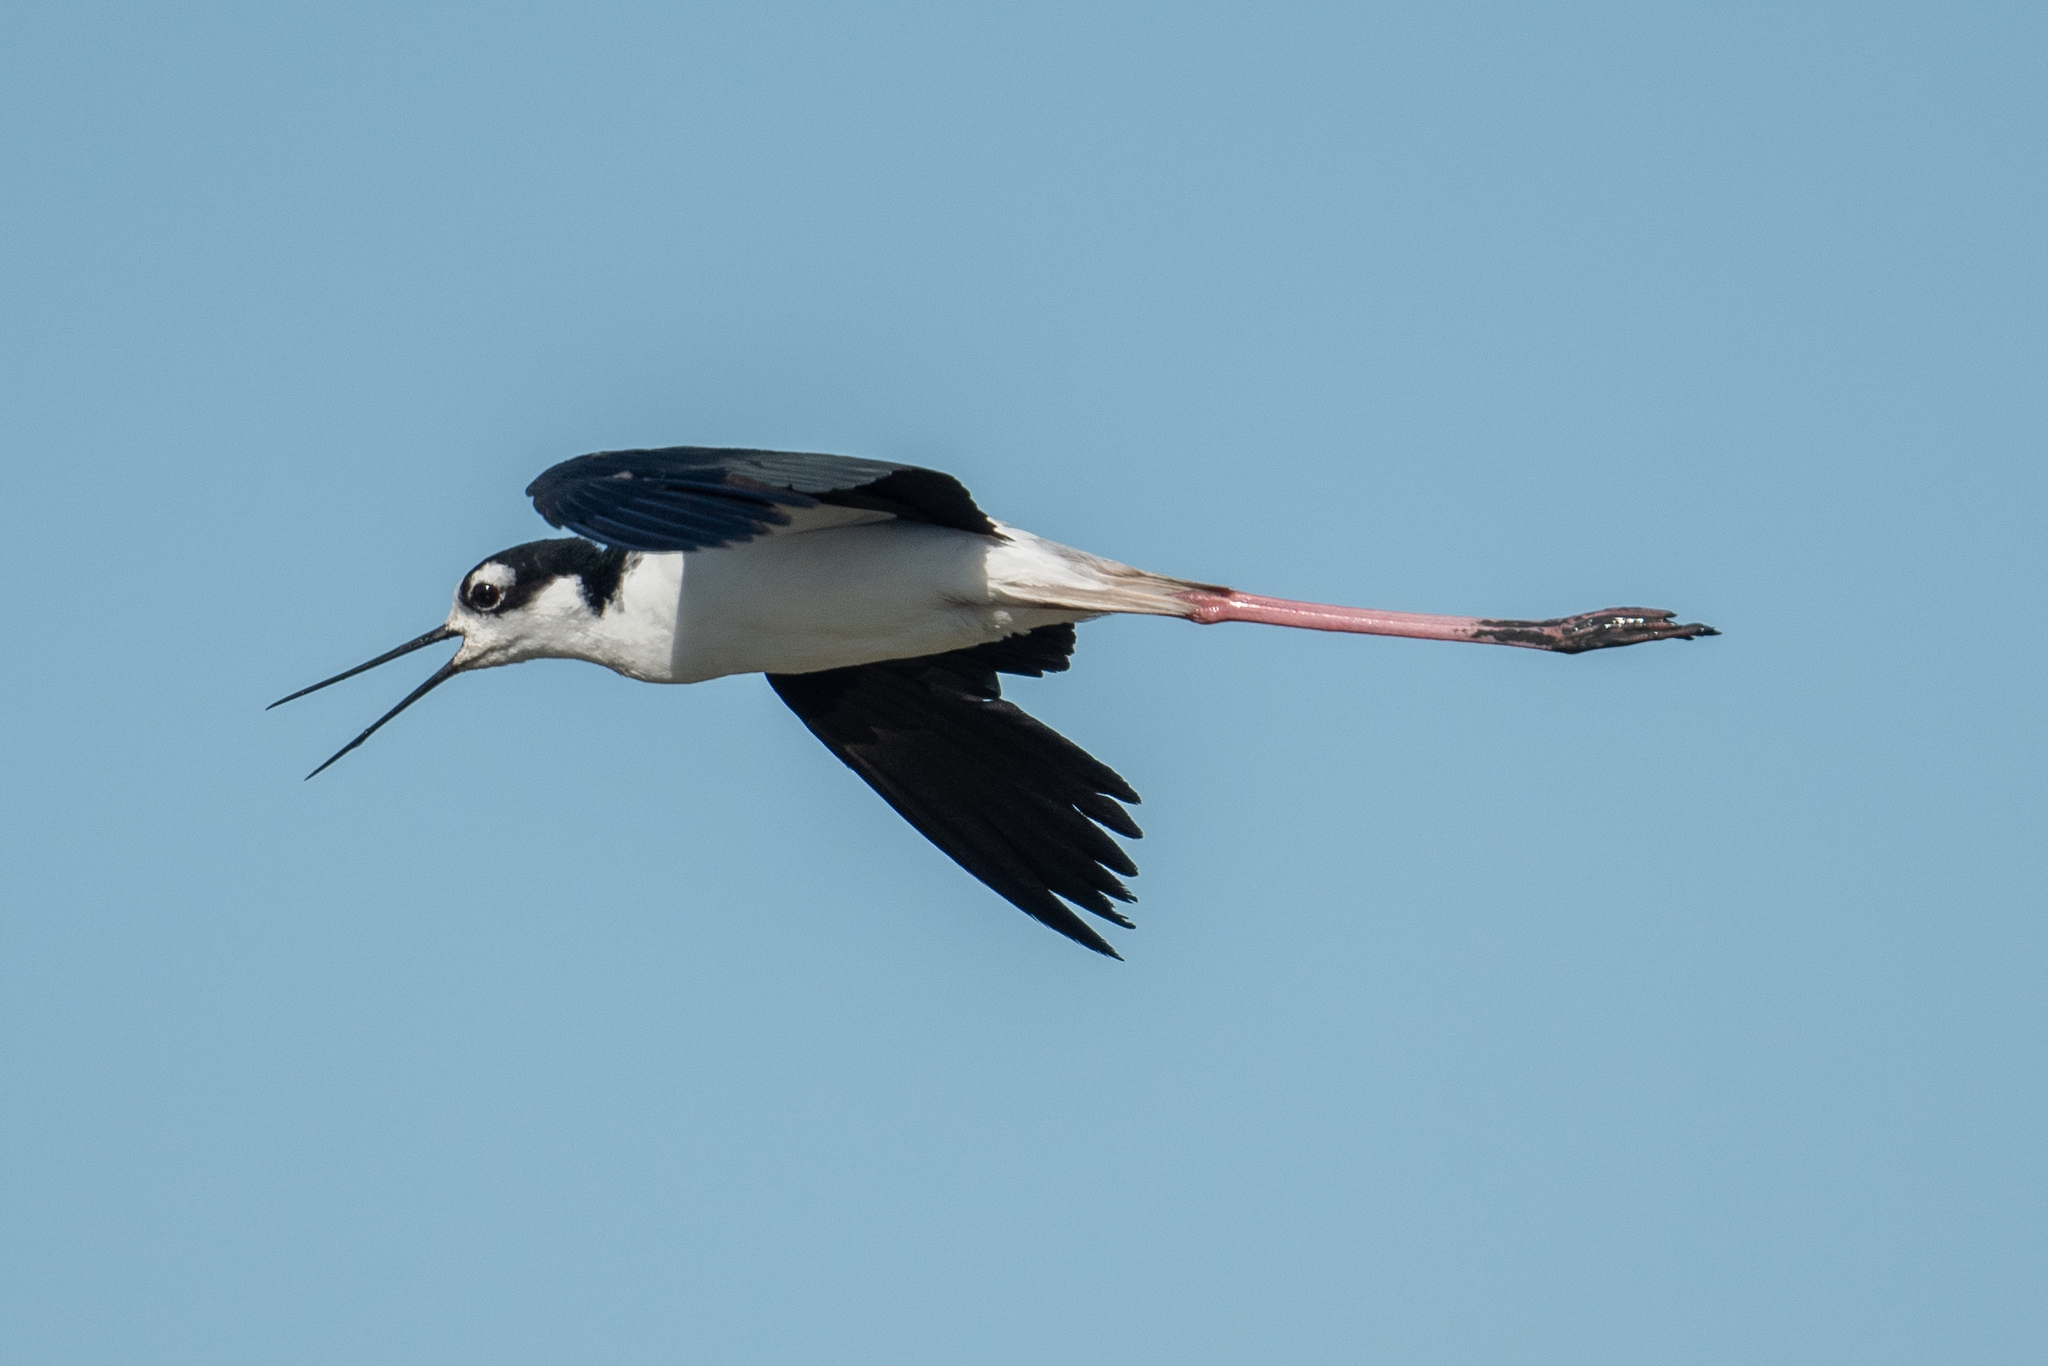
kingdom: Animalia
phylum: Chordata
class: Aves
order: Charadriiformes
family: Recurvirostridae
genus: Himantopus
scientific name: Himantopus mexicanus
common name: Black-necked stilt
